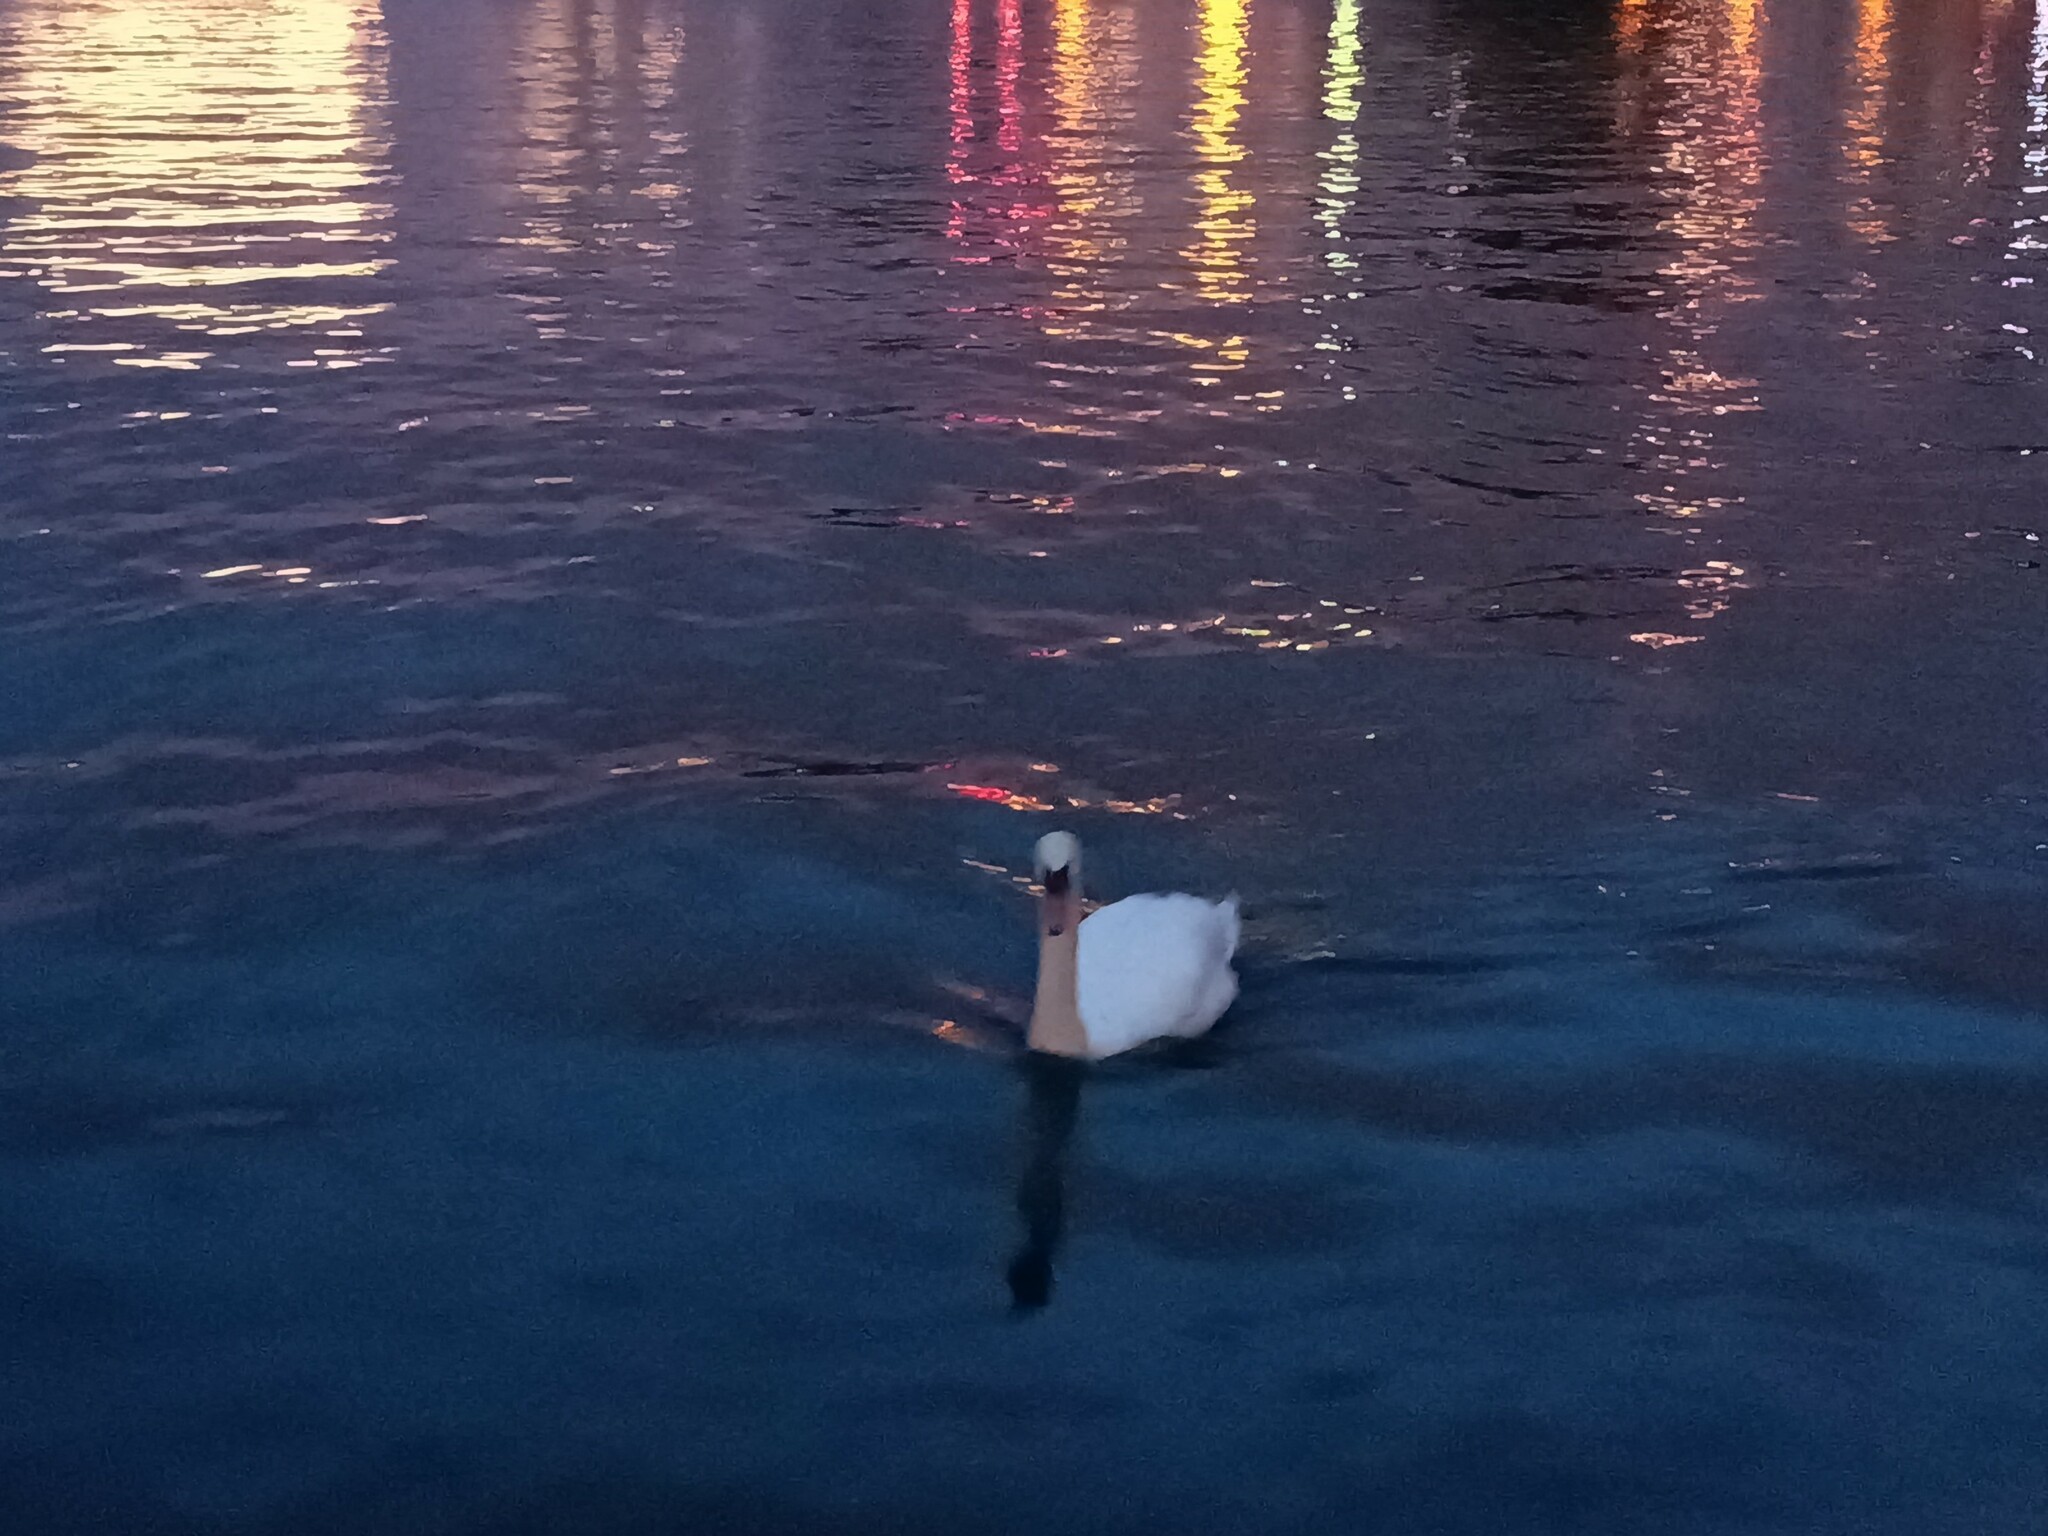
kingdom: Animalia
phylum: Chordata
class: Aves
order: Anseriformes
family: Anatidae
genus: Cygnus
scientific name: Cygnus olor
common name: Mute swan
